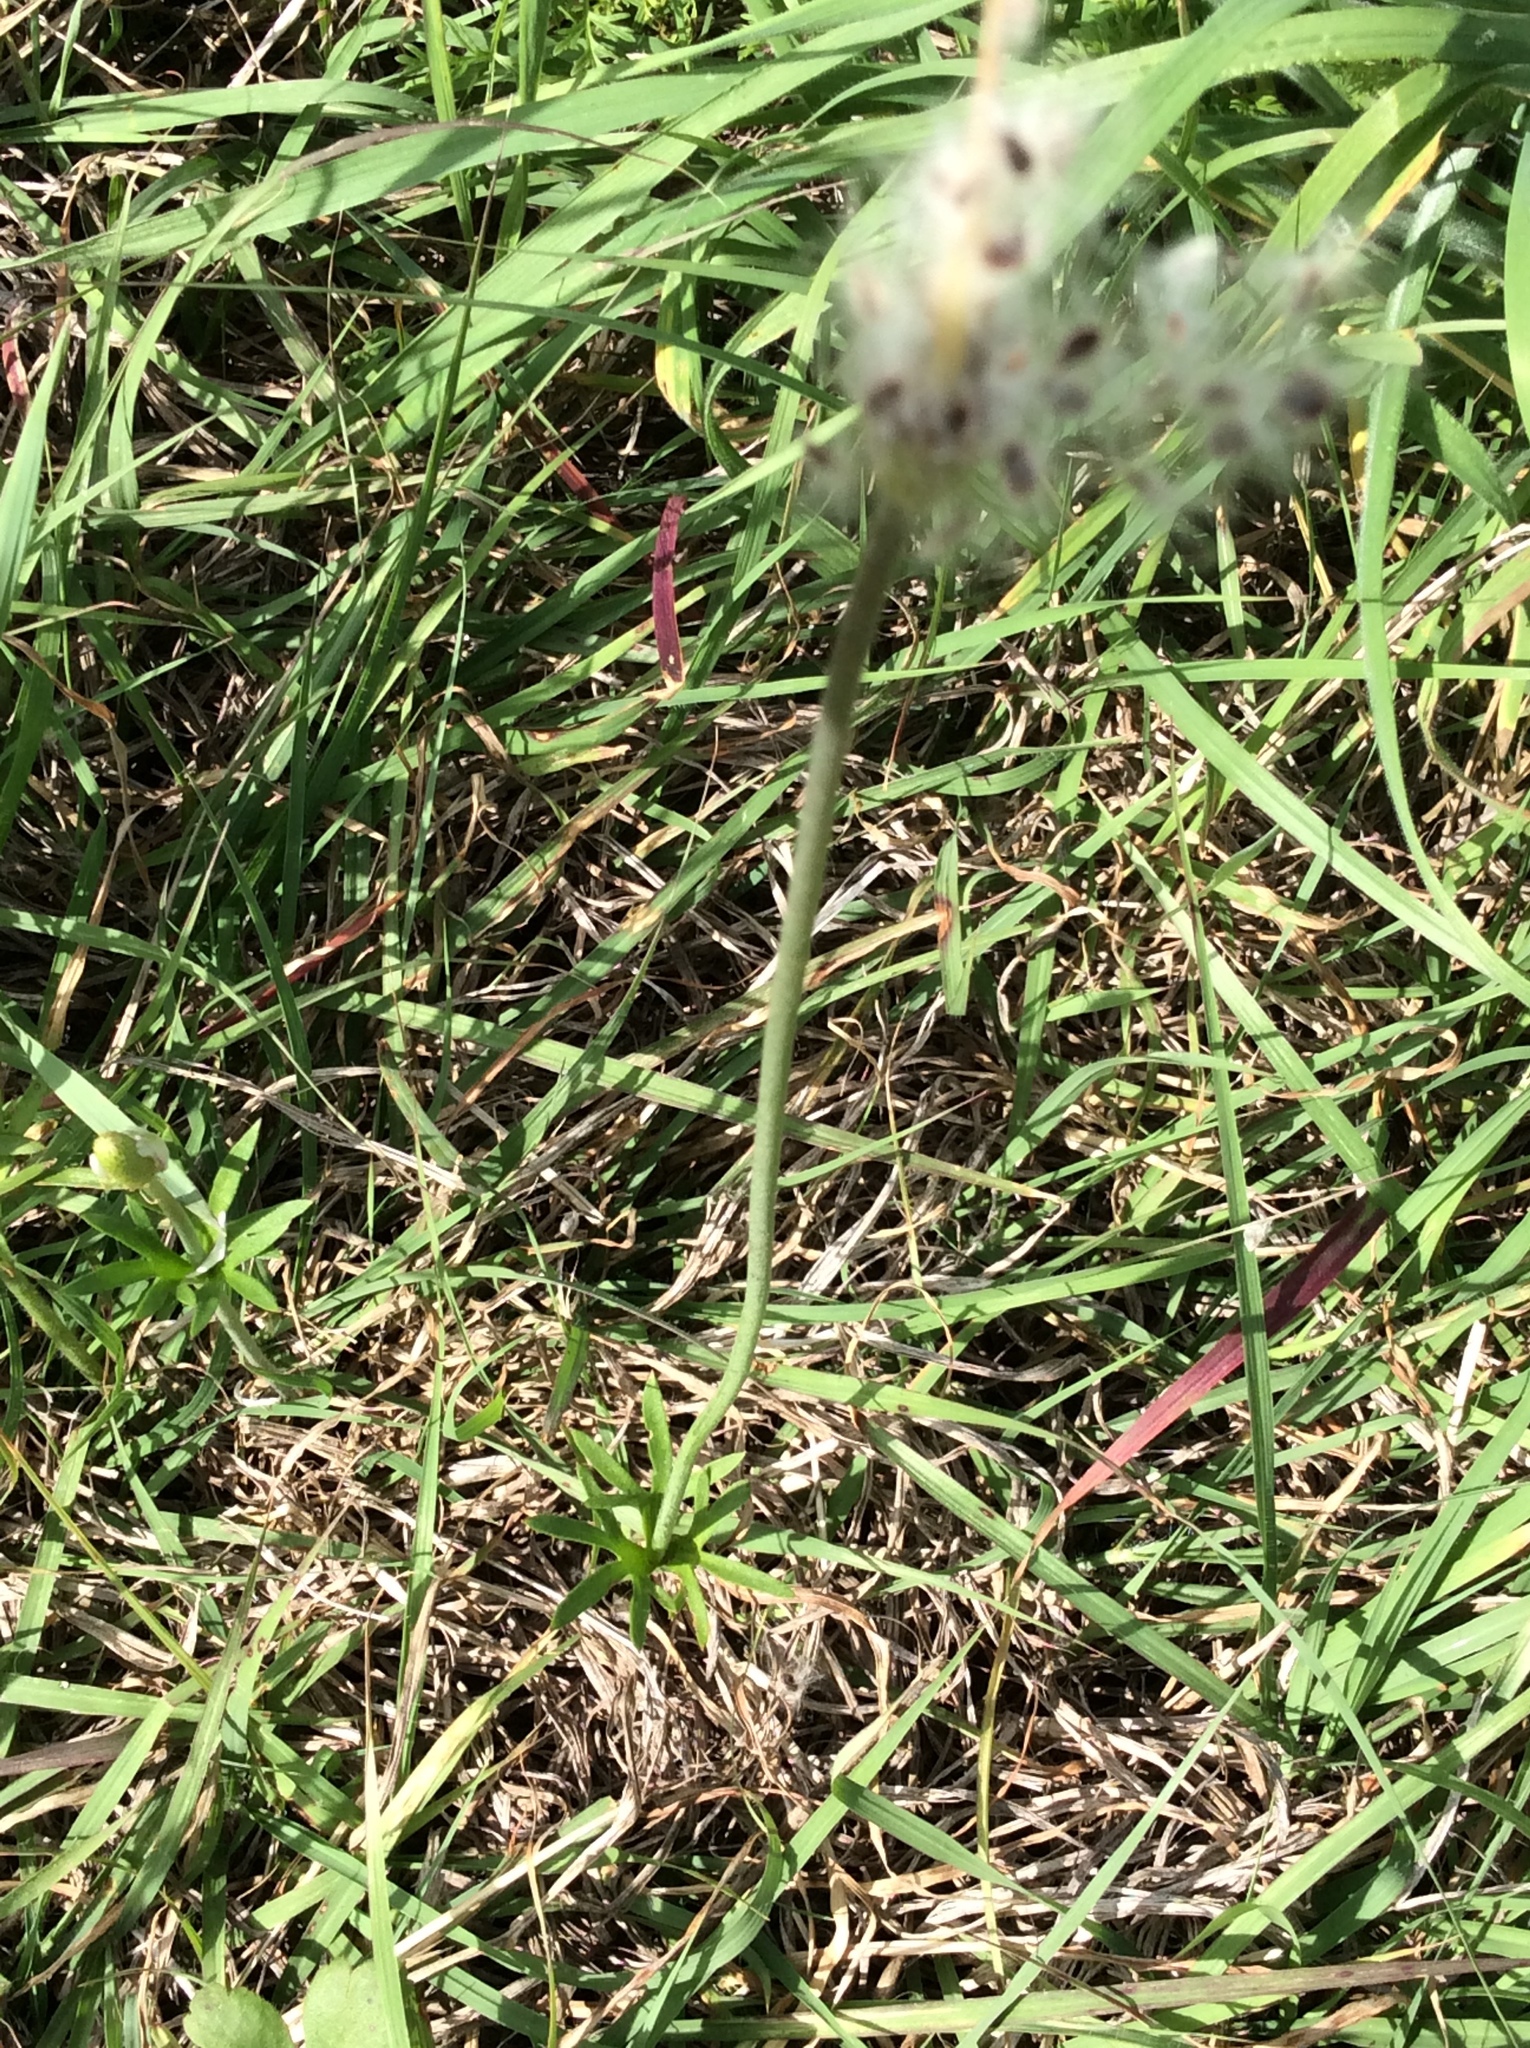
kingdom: Plantae
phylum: Tracheophyta
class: Magnoliopsida
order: Ranunculales
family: Ranunculaceae
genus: Anemone
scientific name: Anemone berlandieri
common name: Ten-petal anemone
